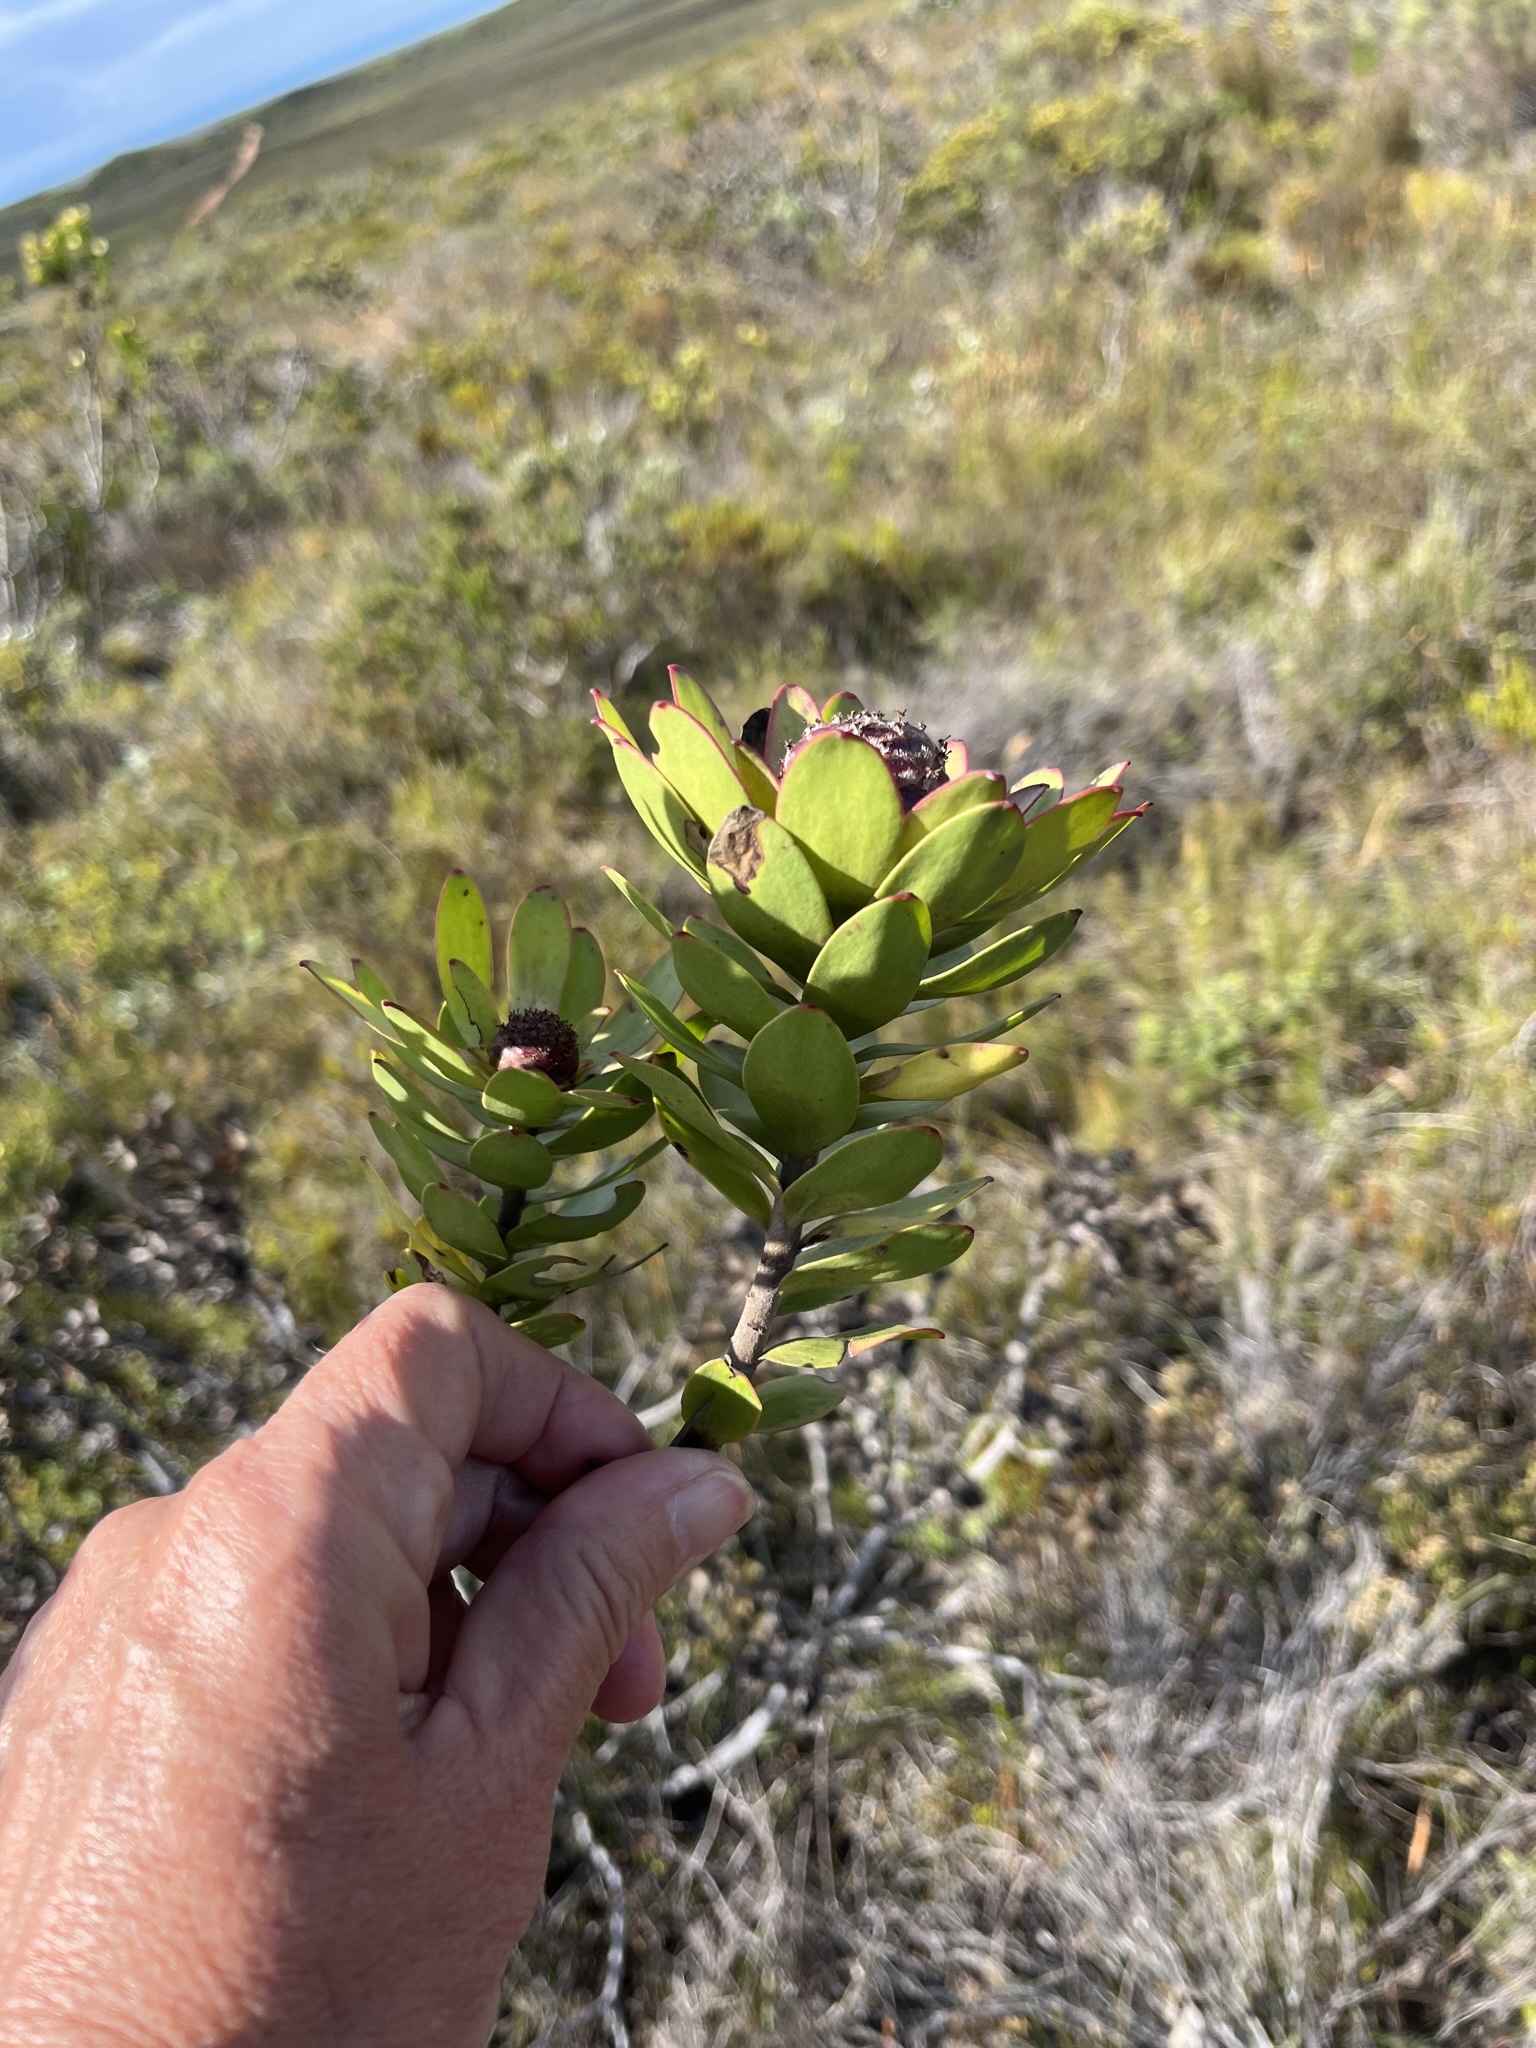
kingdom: Plantae
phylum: Tracheophyta
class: Magnoliopsida
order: Proteales
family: Proteaceae
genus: Leucadendron
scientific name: Leucadendron elimense
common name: Elim conebush
